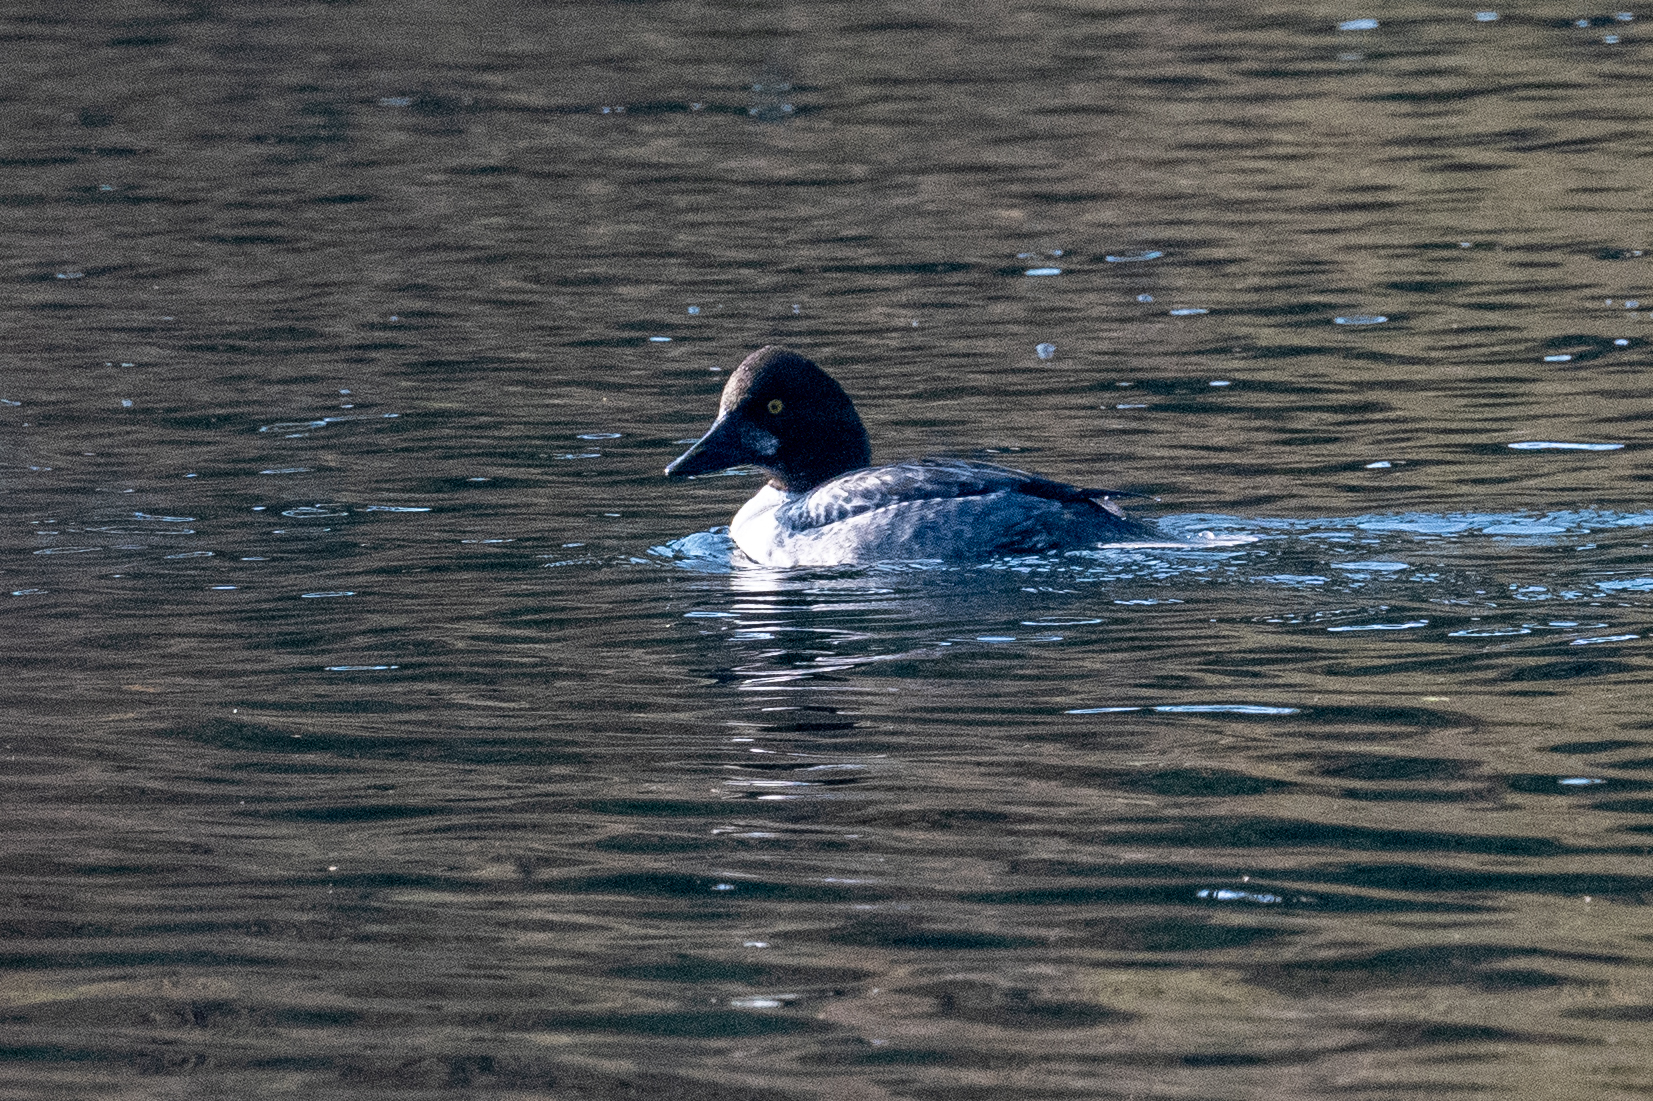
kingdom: Animalia
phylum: Chordata
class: Aves
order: Anseriformes
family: Anatidae
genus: Bucephala
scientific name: Bucephala clangula
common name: Common goldeneye
